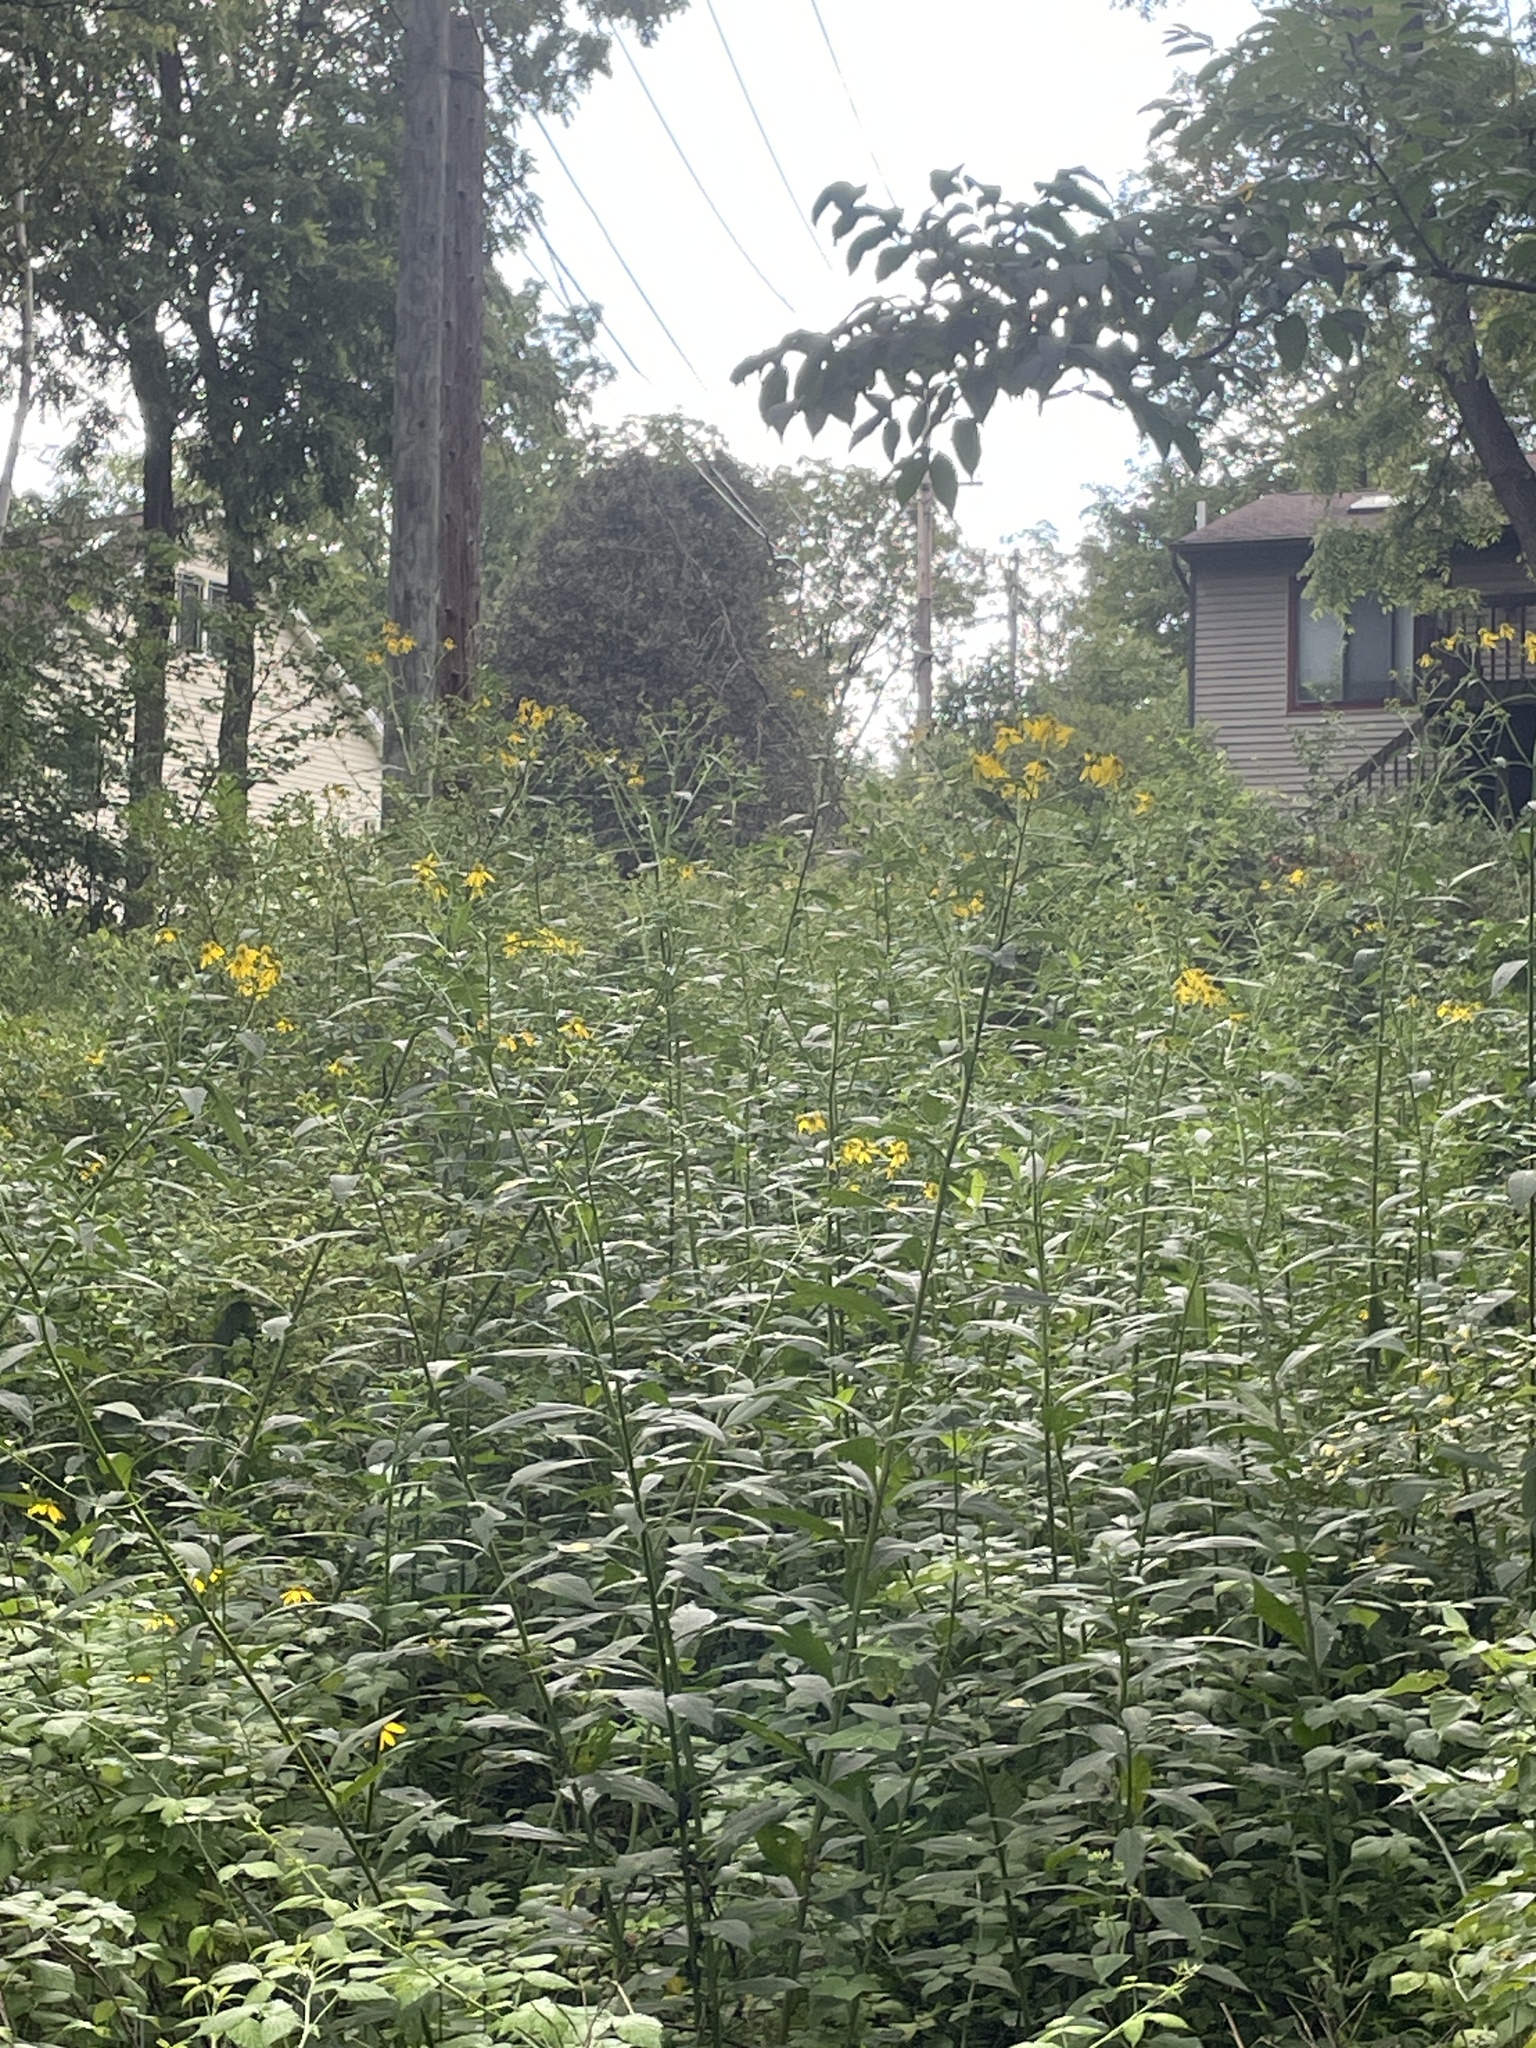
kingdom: Plantae
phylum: Tracheophyta
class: Magnoliopsida
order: Asterales
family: Asteraceae
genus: Verbesina
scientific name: Verbesina alternifolia
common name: Wingstem
